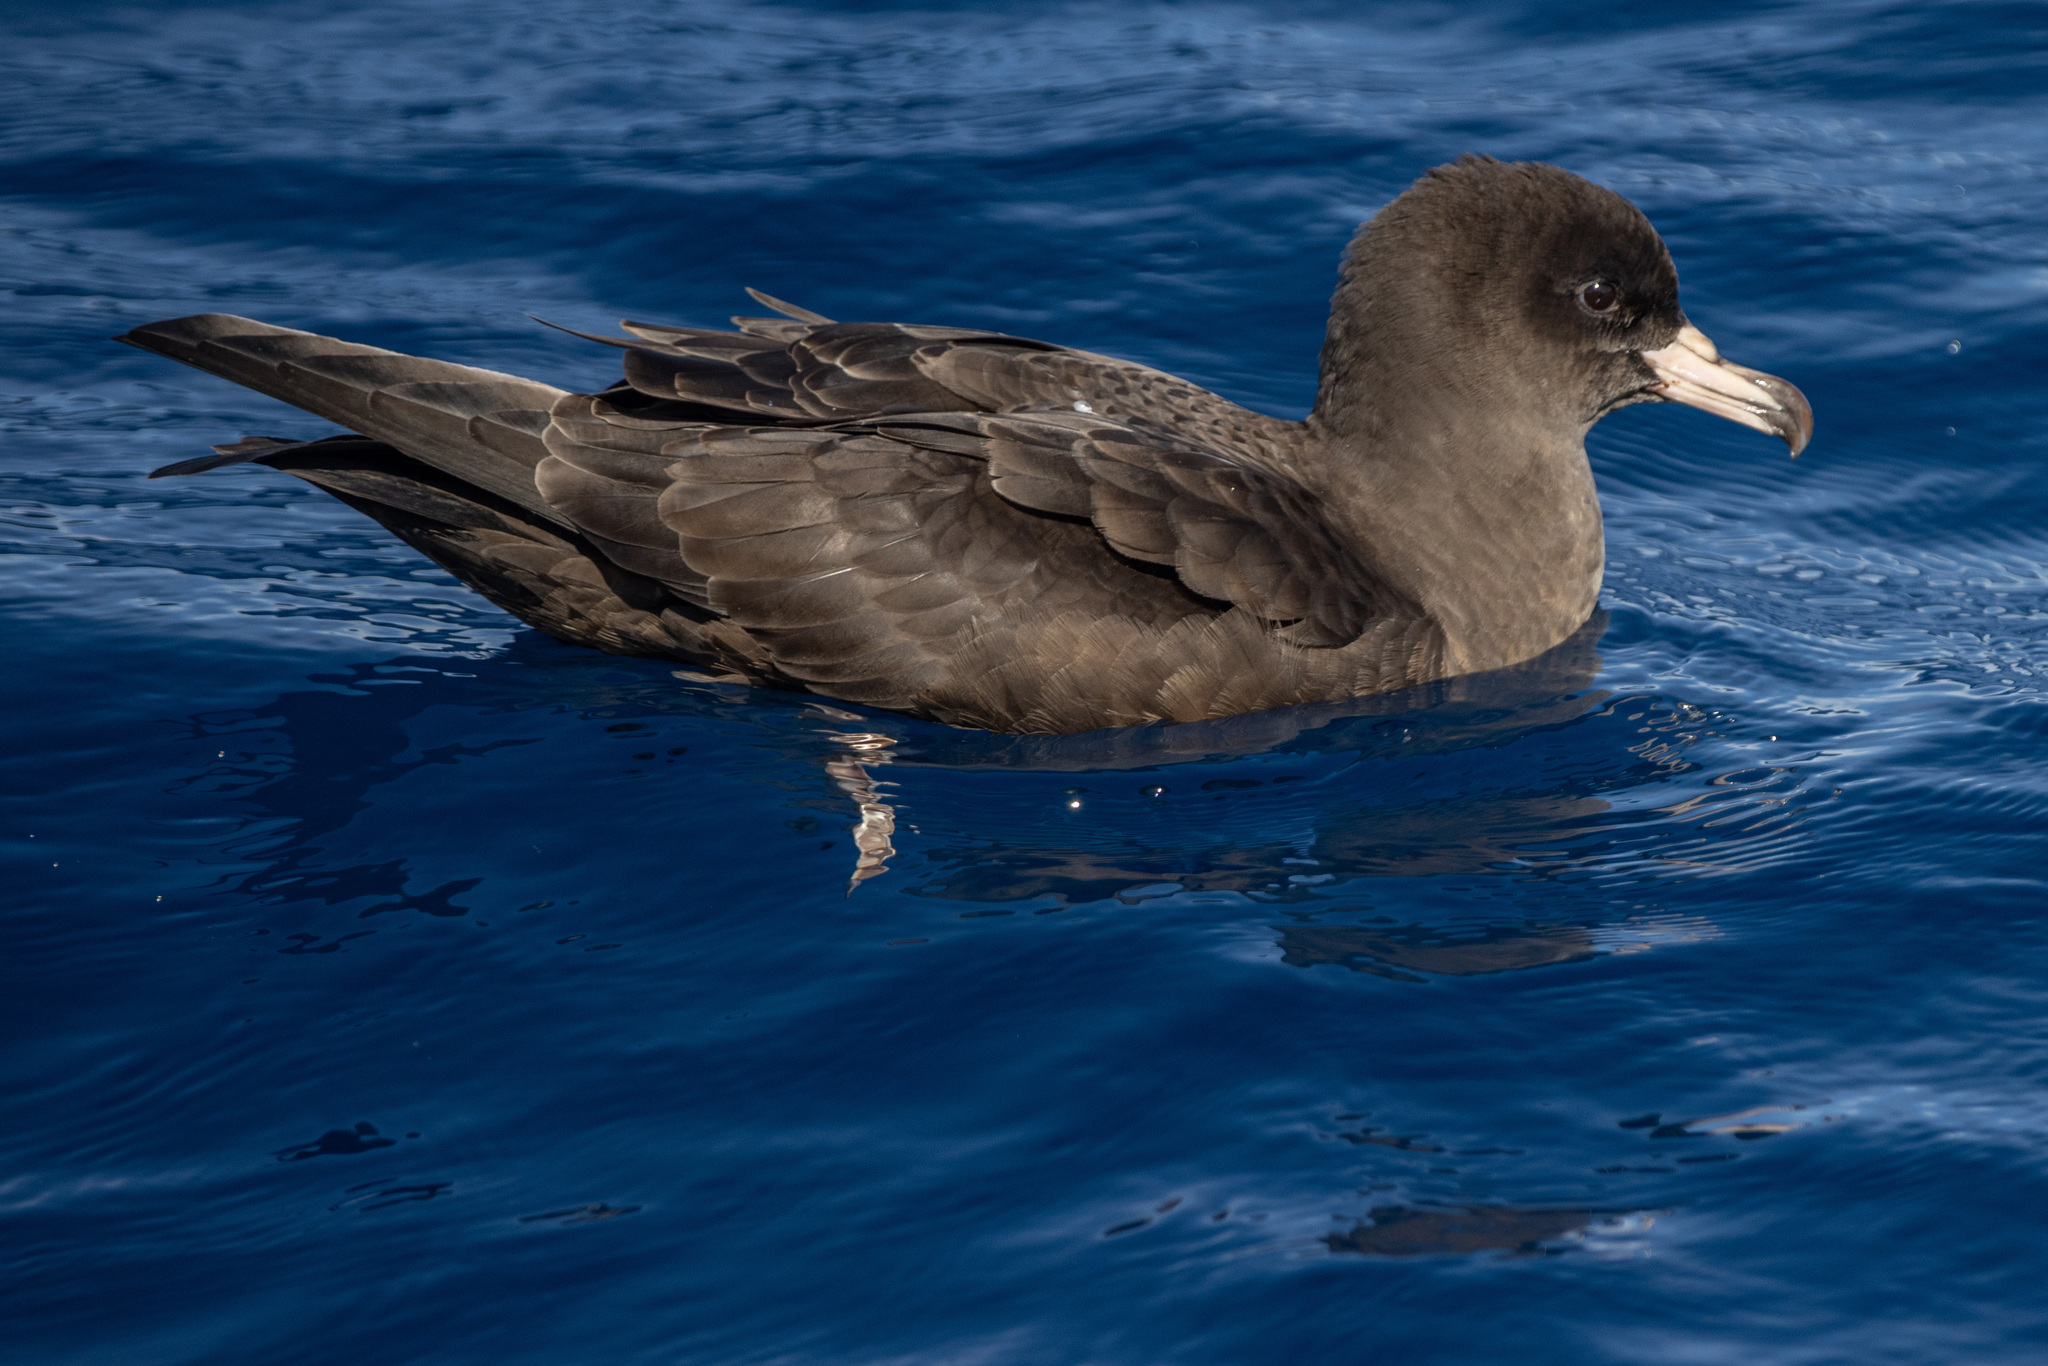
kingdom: Animalia
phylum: Chordata
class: Aves
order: Procellariiformes
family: Procellariidae
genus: Puffinus
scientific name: Puffinus carneipes
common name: Flesh-footed shearwater
